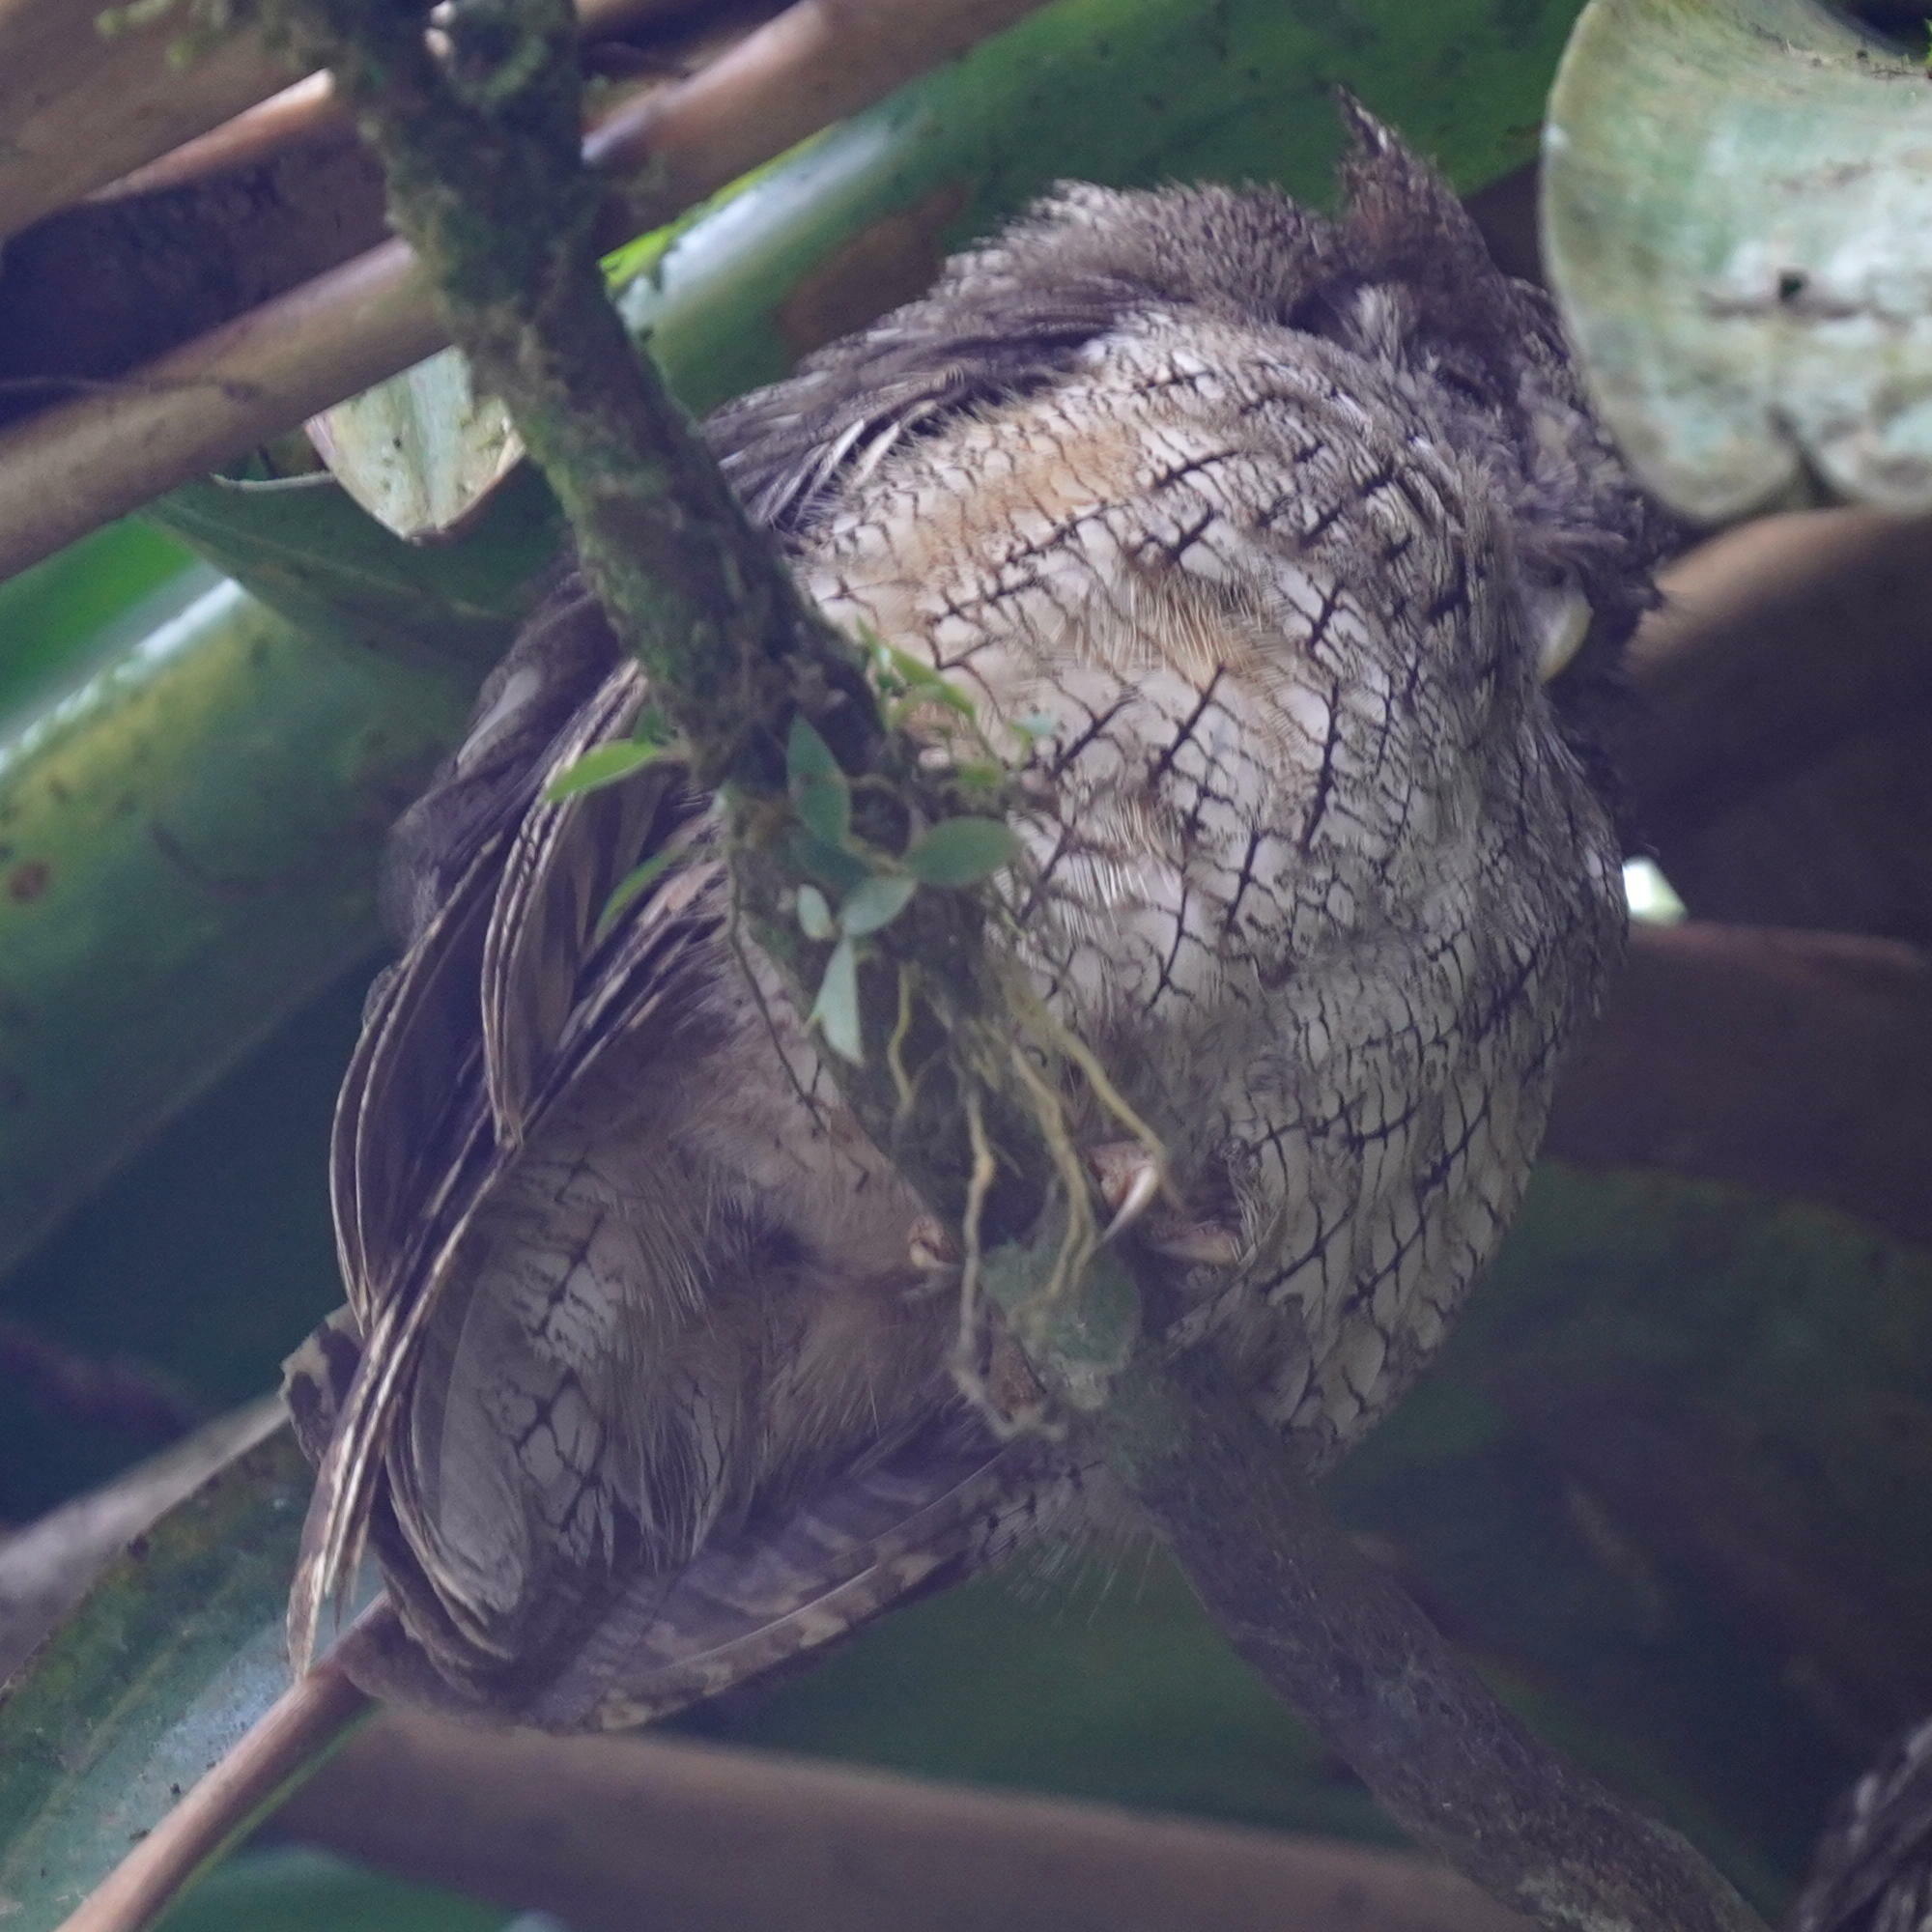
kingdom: Animalia
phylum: Chordata
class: Aves
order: Strigiformes
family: Strigidae
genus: Megascops
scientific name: Megascops choliba
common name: Tropical screech-owl
